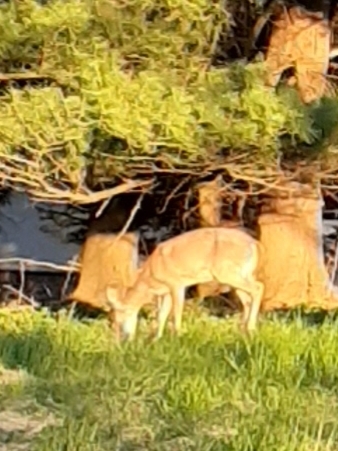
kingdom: Animalia
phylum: Chordata
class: Mammalia
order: Artiodactyla
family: Cervidae
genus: Odocoileus
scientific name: Odocoileus virginianus
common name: White-tailed deer
